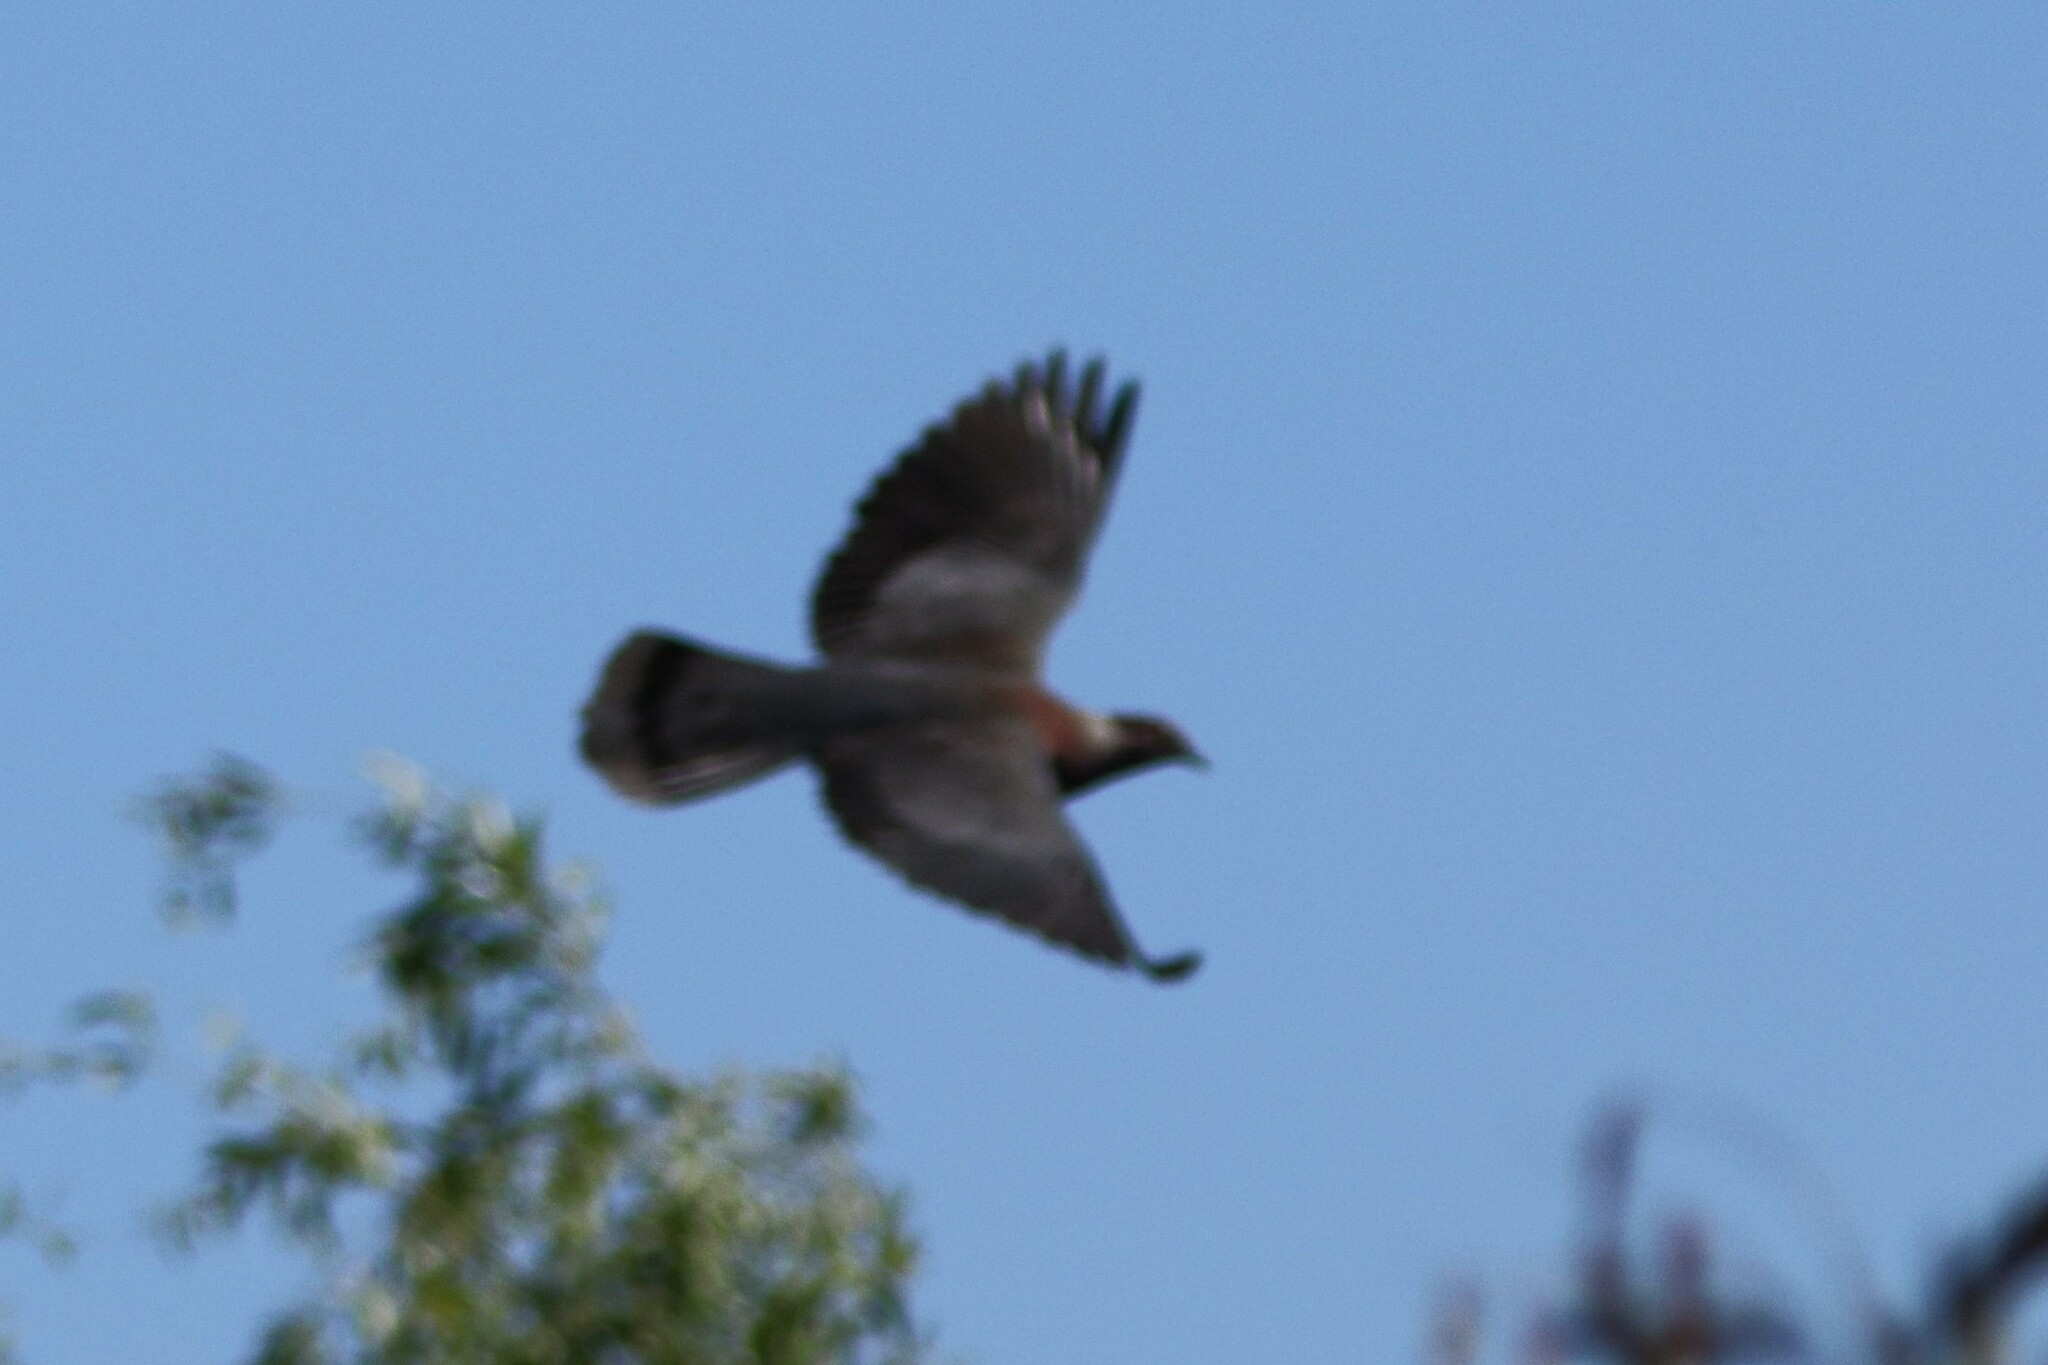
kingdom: Animalia
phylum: Chordata
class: Aves
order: Columbiformes
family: Columbidae
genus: Patagioenas
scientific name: Patagioenas araucana
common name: Chilean pigeon
